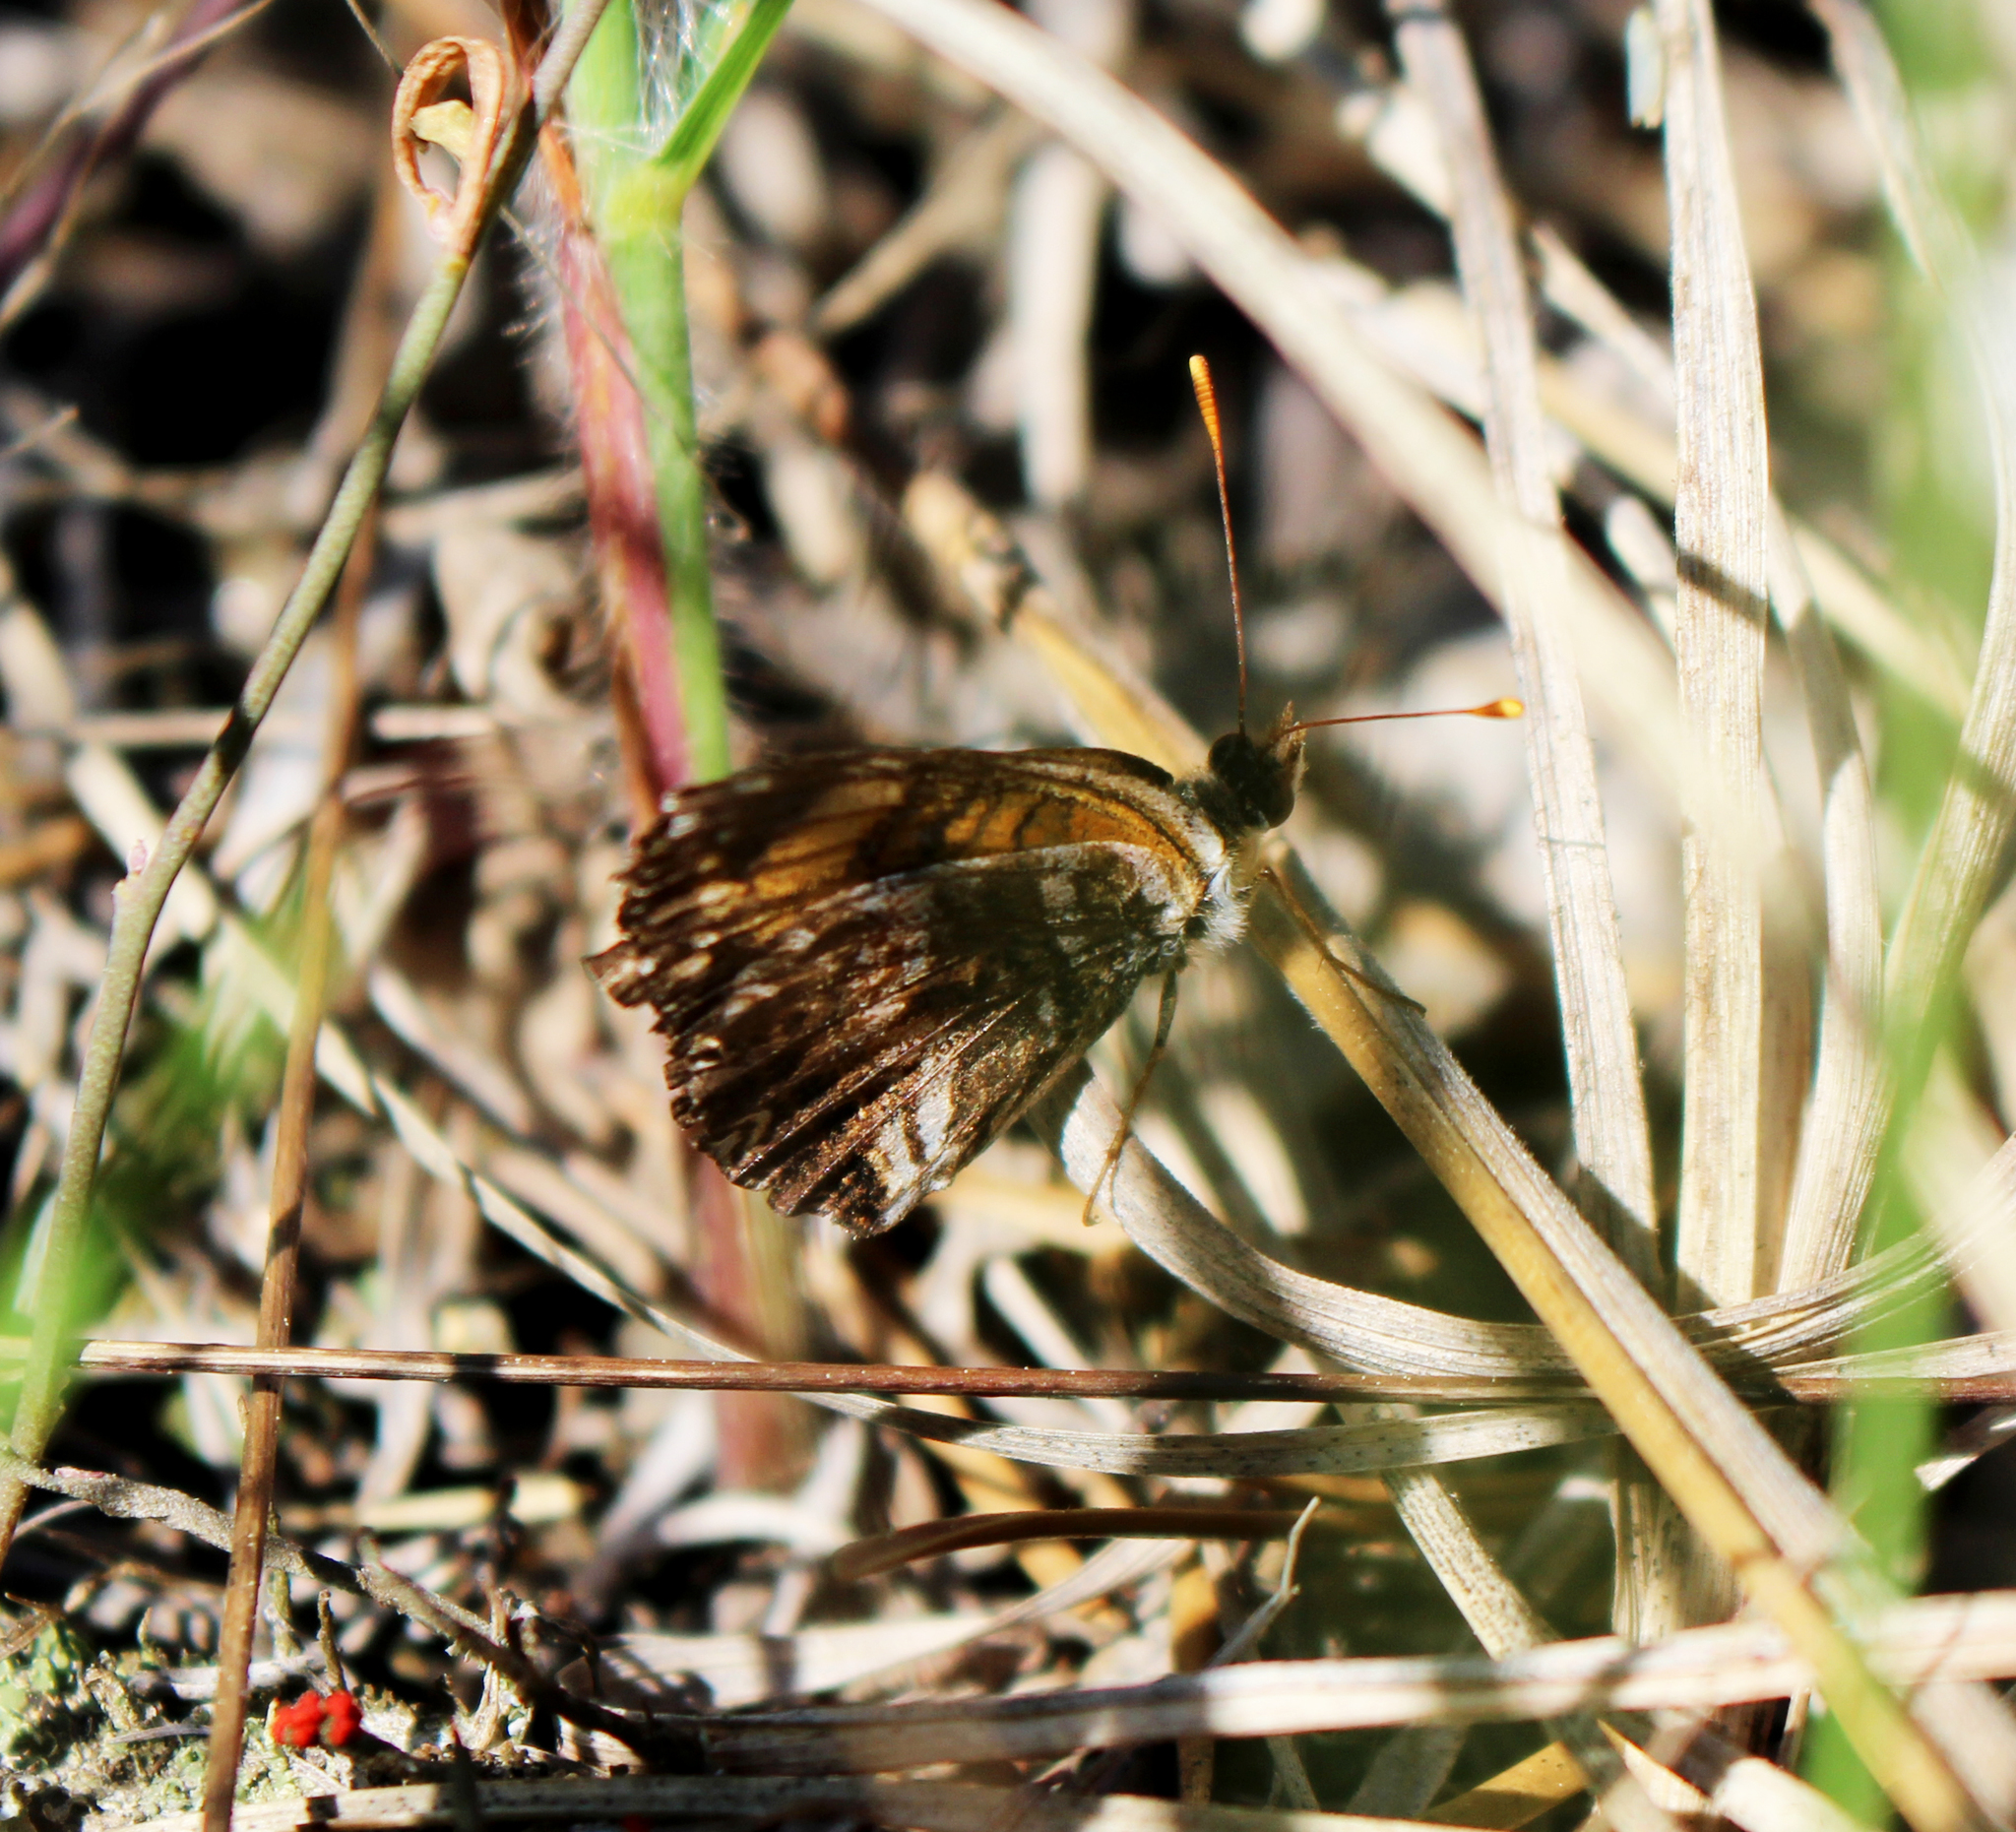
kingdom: Animalia
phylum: Arthropoda
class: Insecta
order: Lepidoptera
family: Nymphalidae
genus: Chlosyne
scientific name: Chlosyne gorgone
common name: Gorgone checkerspot
